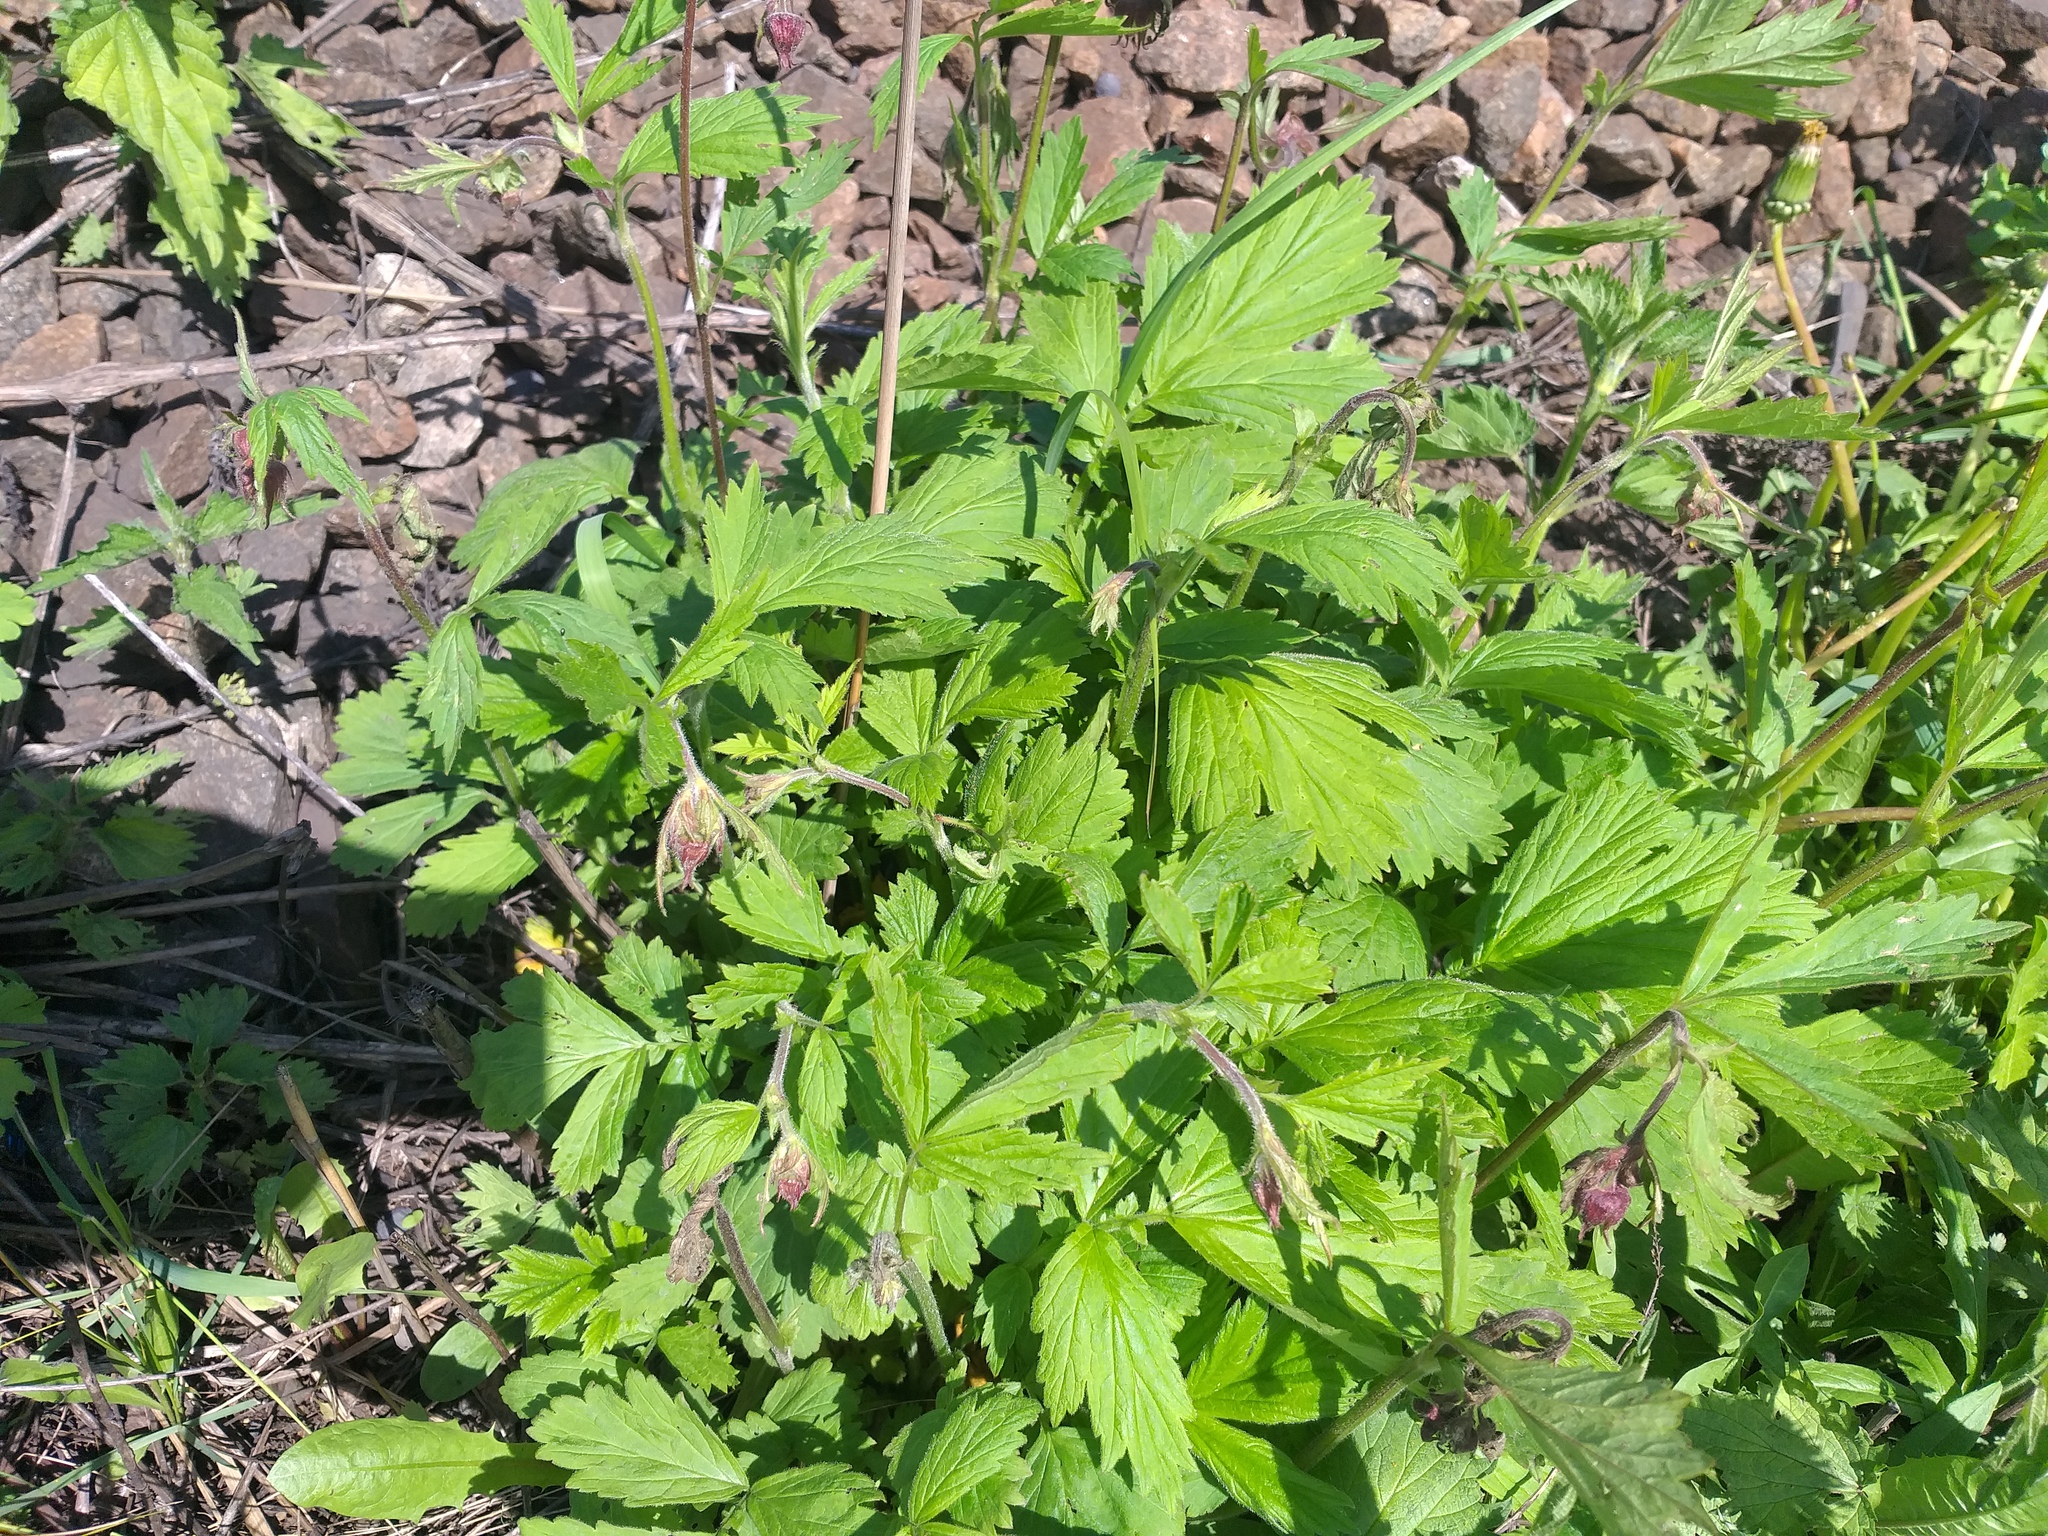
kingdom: Plantae
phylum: Tracheophyta
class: Magnoliopsida
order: Rosales
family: Rosaceae
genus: Geum
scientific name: Geum rivale
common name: Water avens
